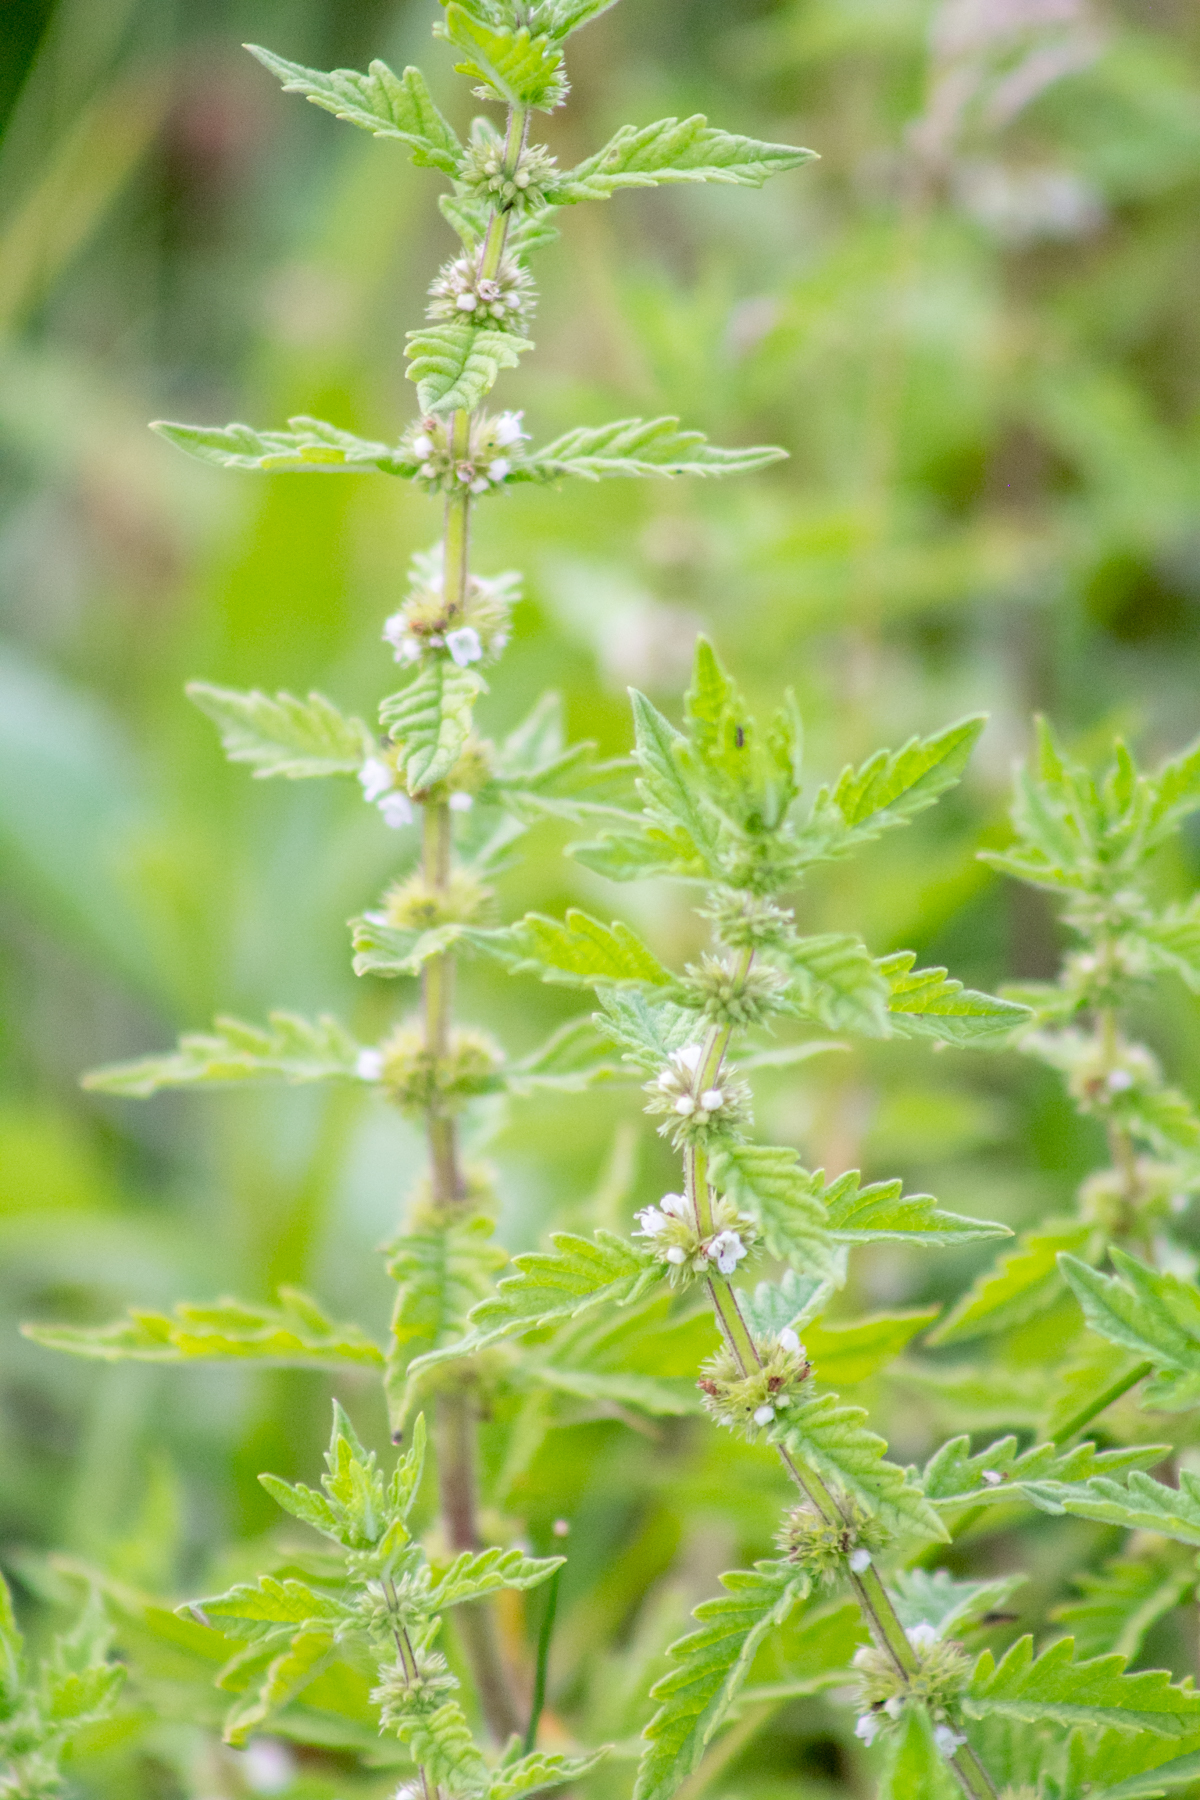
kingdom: Plantae
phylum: Tracheophyta
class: Magnoliopsida
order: Lamiales
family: Lamiaceae
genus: Lycopus
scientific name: Lycopus europaeus
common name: European bugleweed
